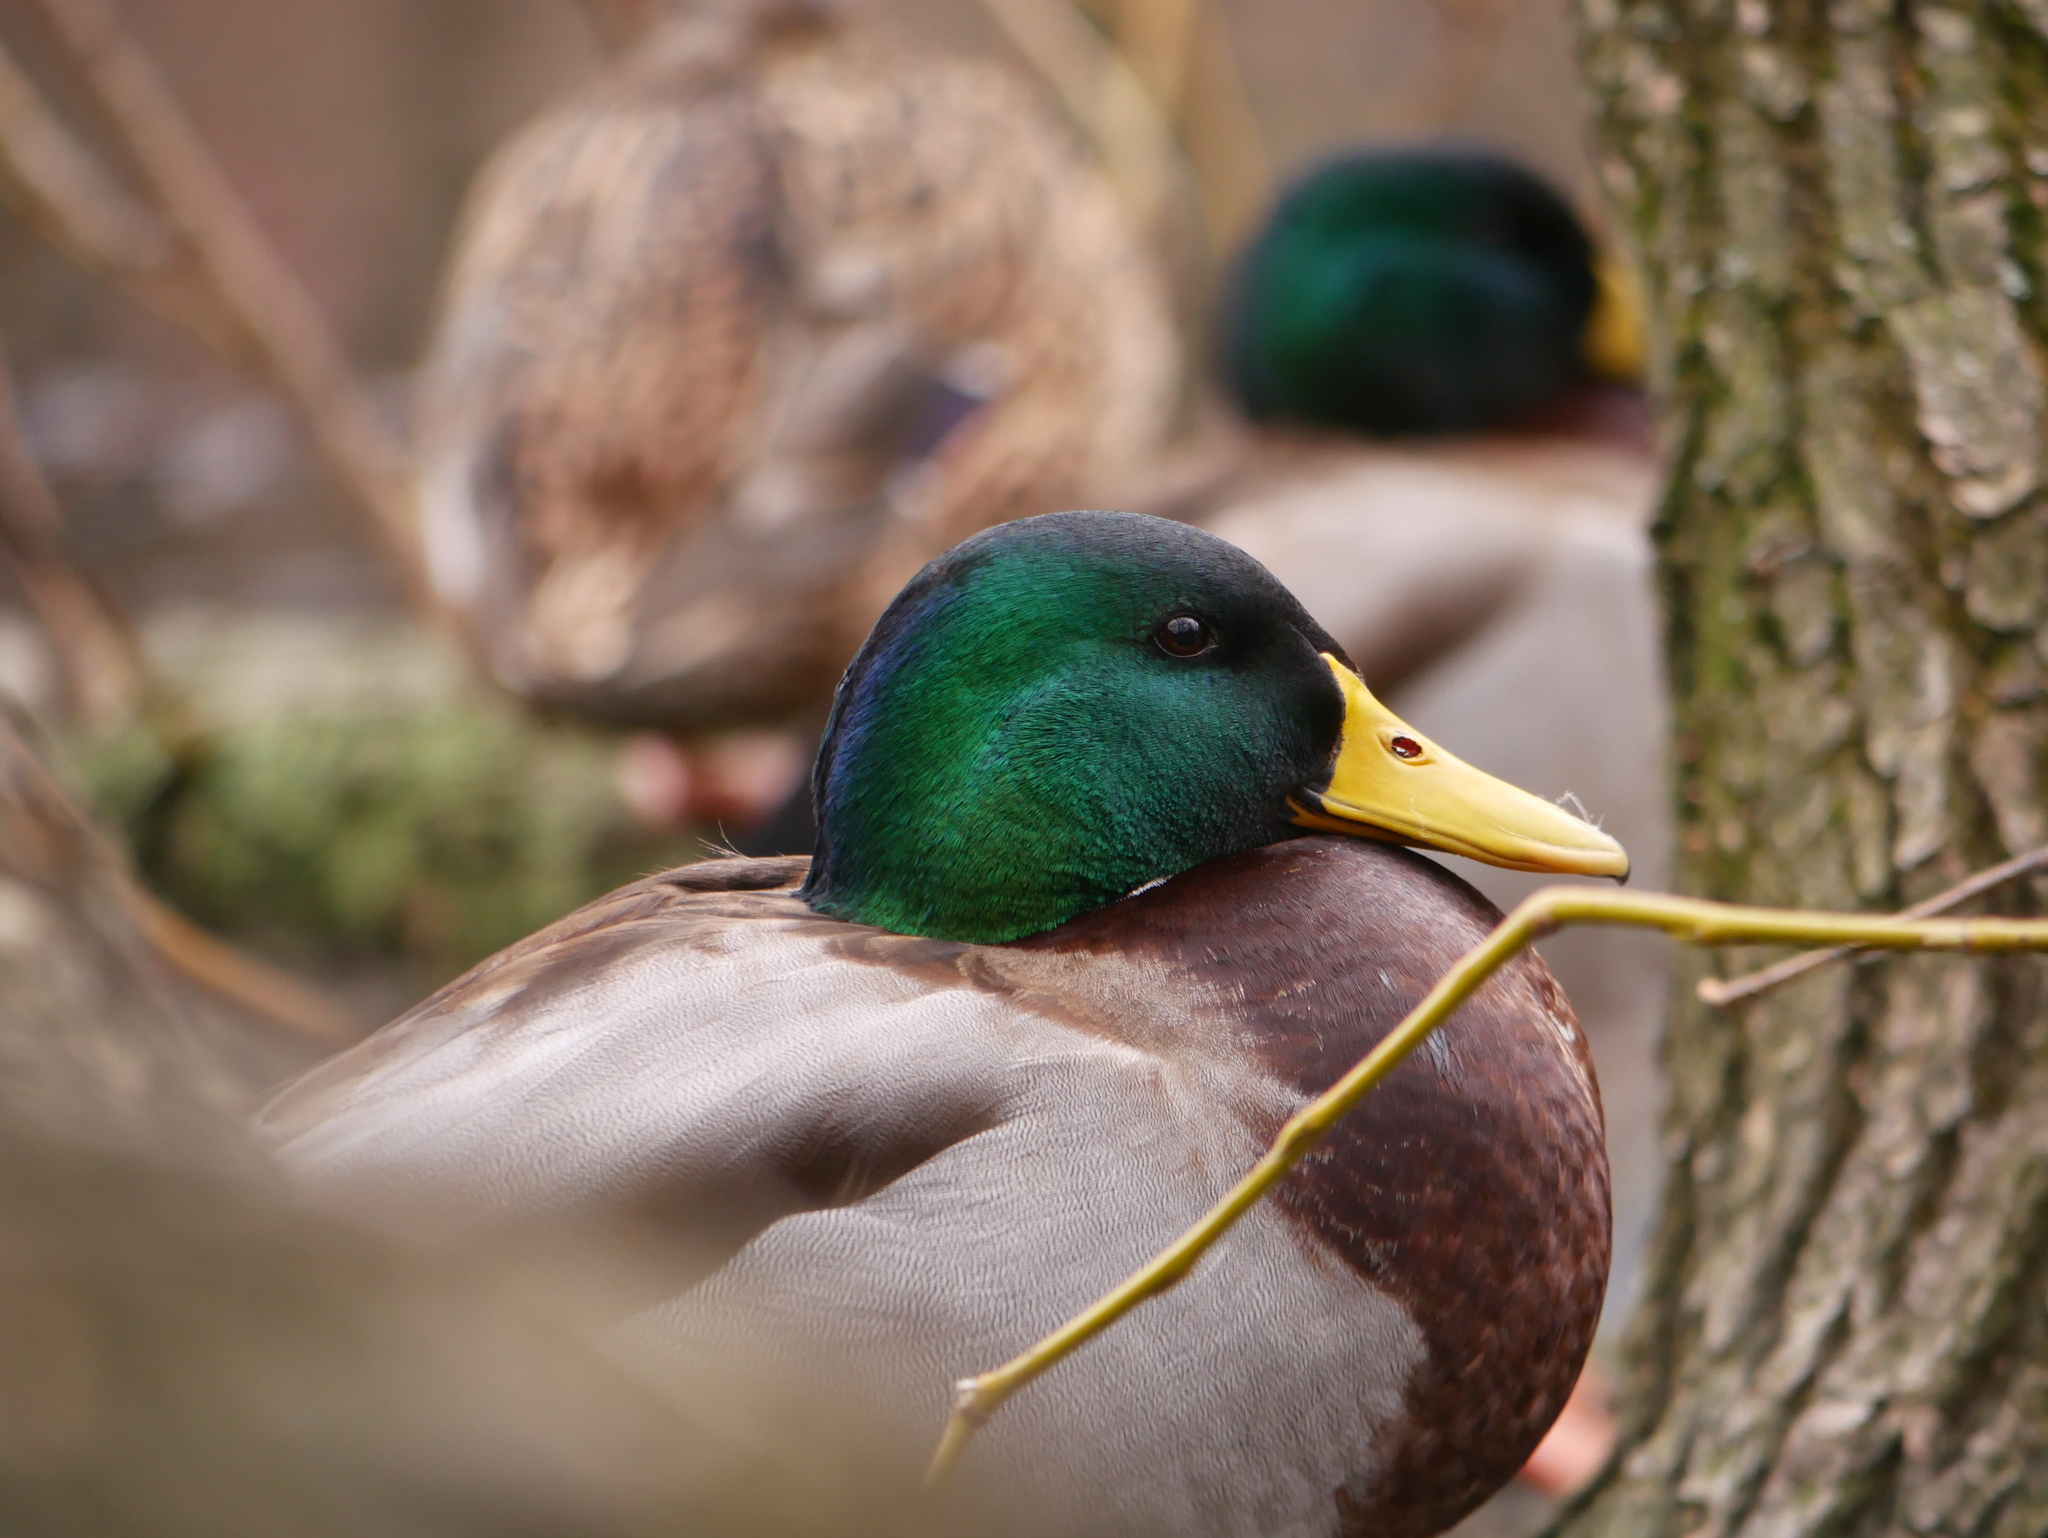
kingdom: Animalia
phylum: Chordata
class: Aves
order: Anseriformes
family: Anatidae
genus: Anas
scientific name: Anas platyrhynchos
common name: Mallard
